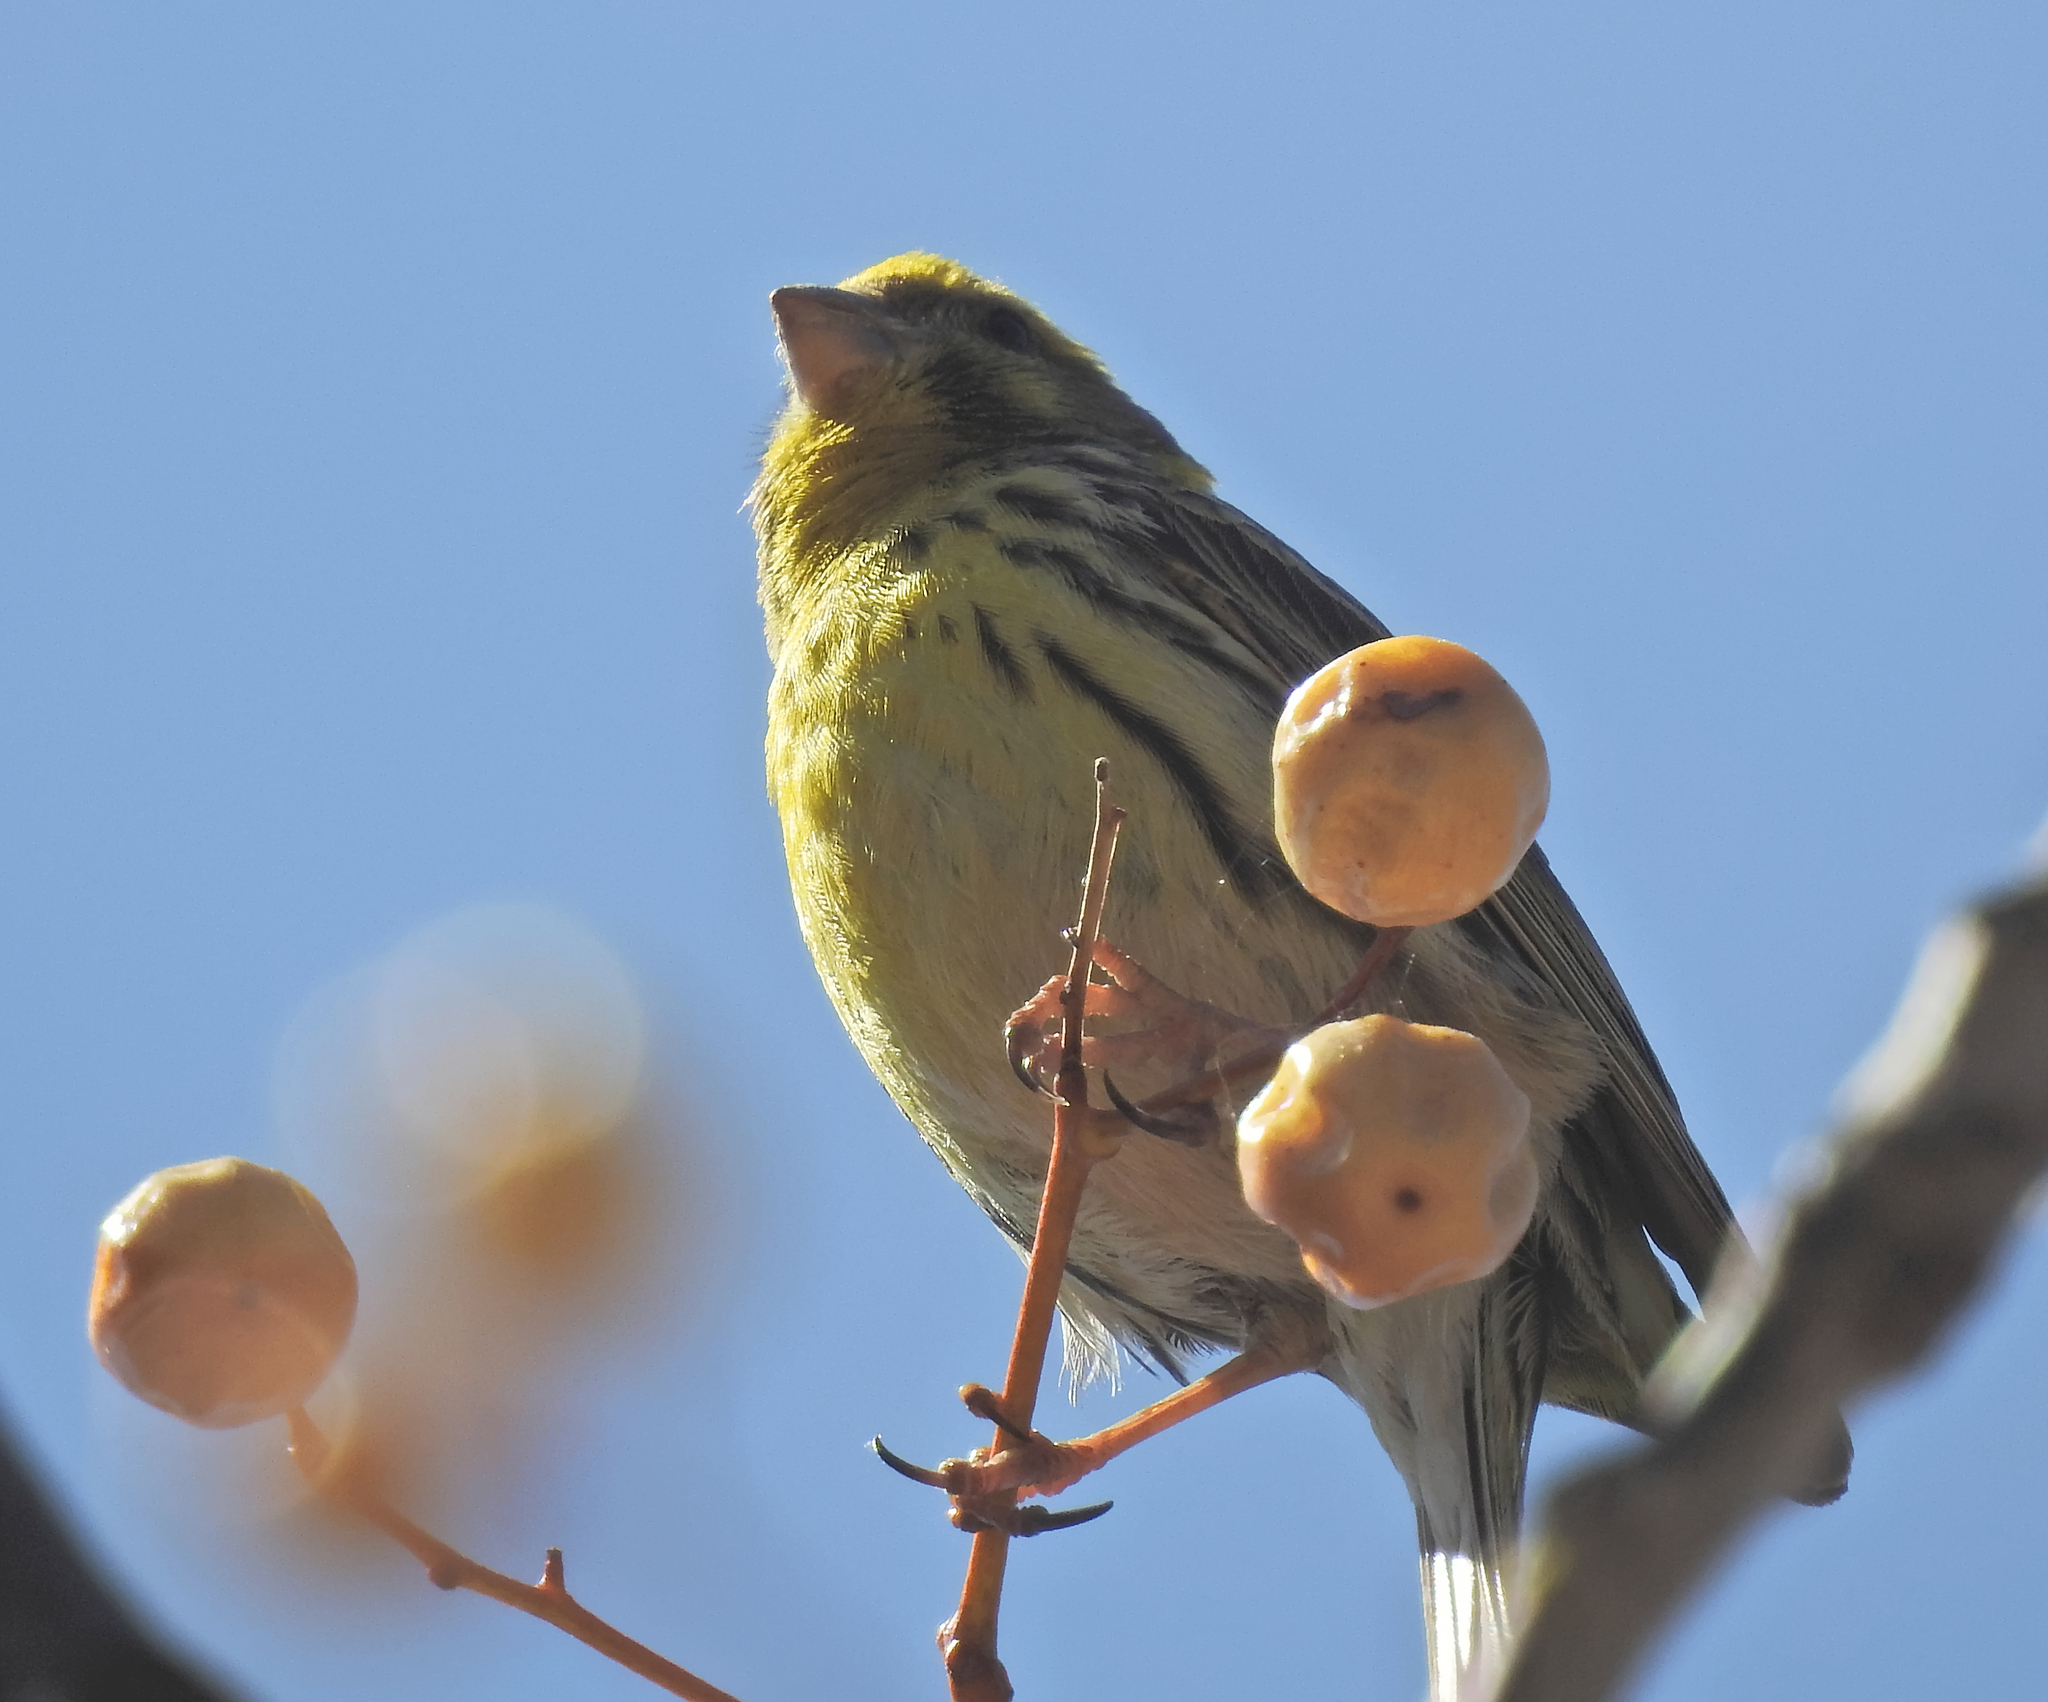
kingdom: Animalia
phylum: Chordata
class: Aves
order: Passeriformes
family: Fringillidae
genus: Serinus
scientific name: Serinus serinus
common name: European serin
